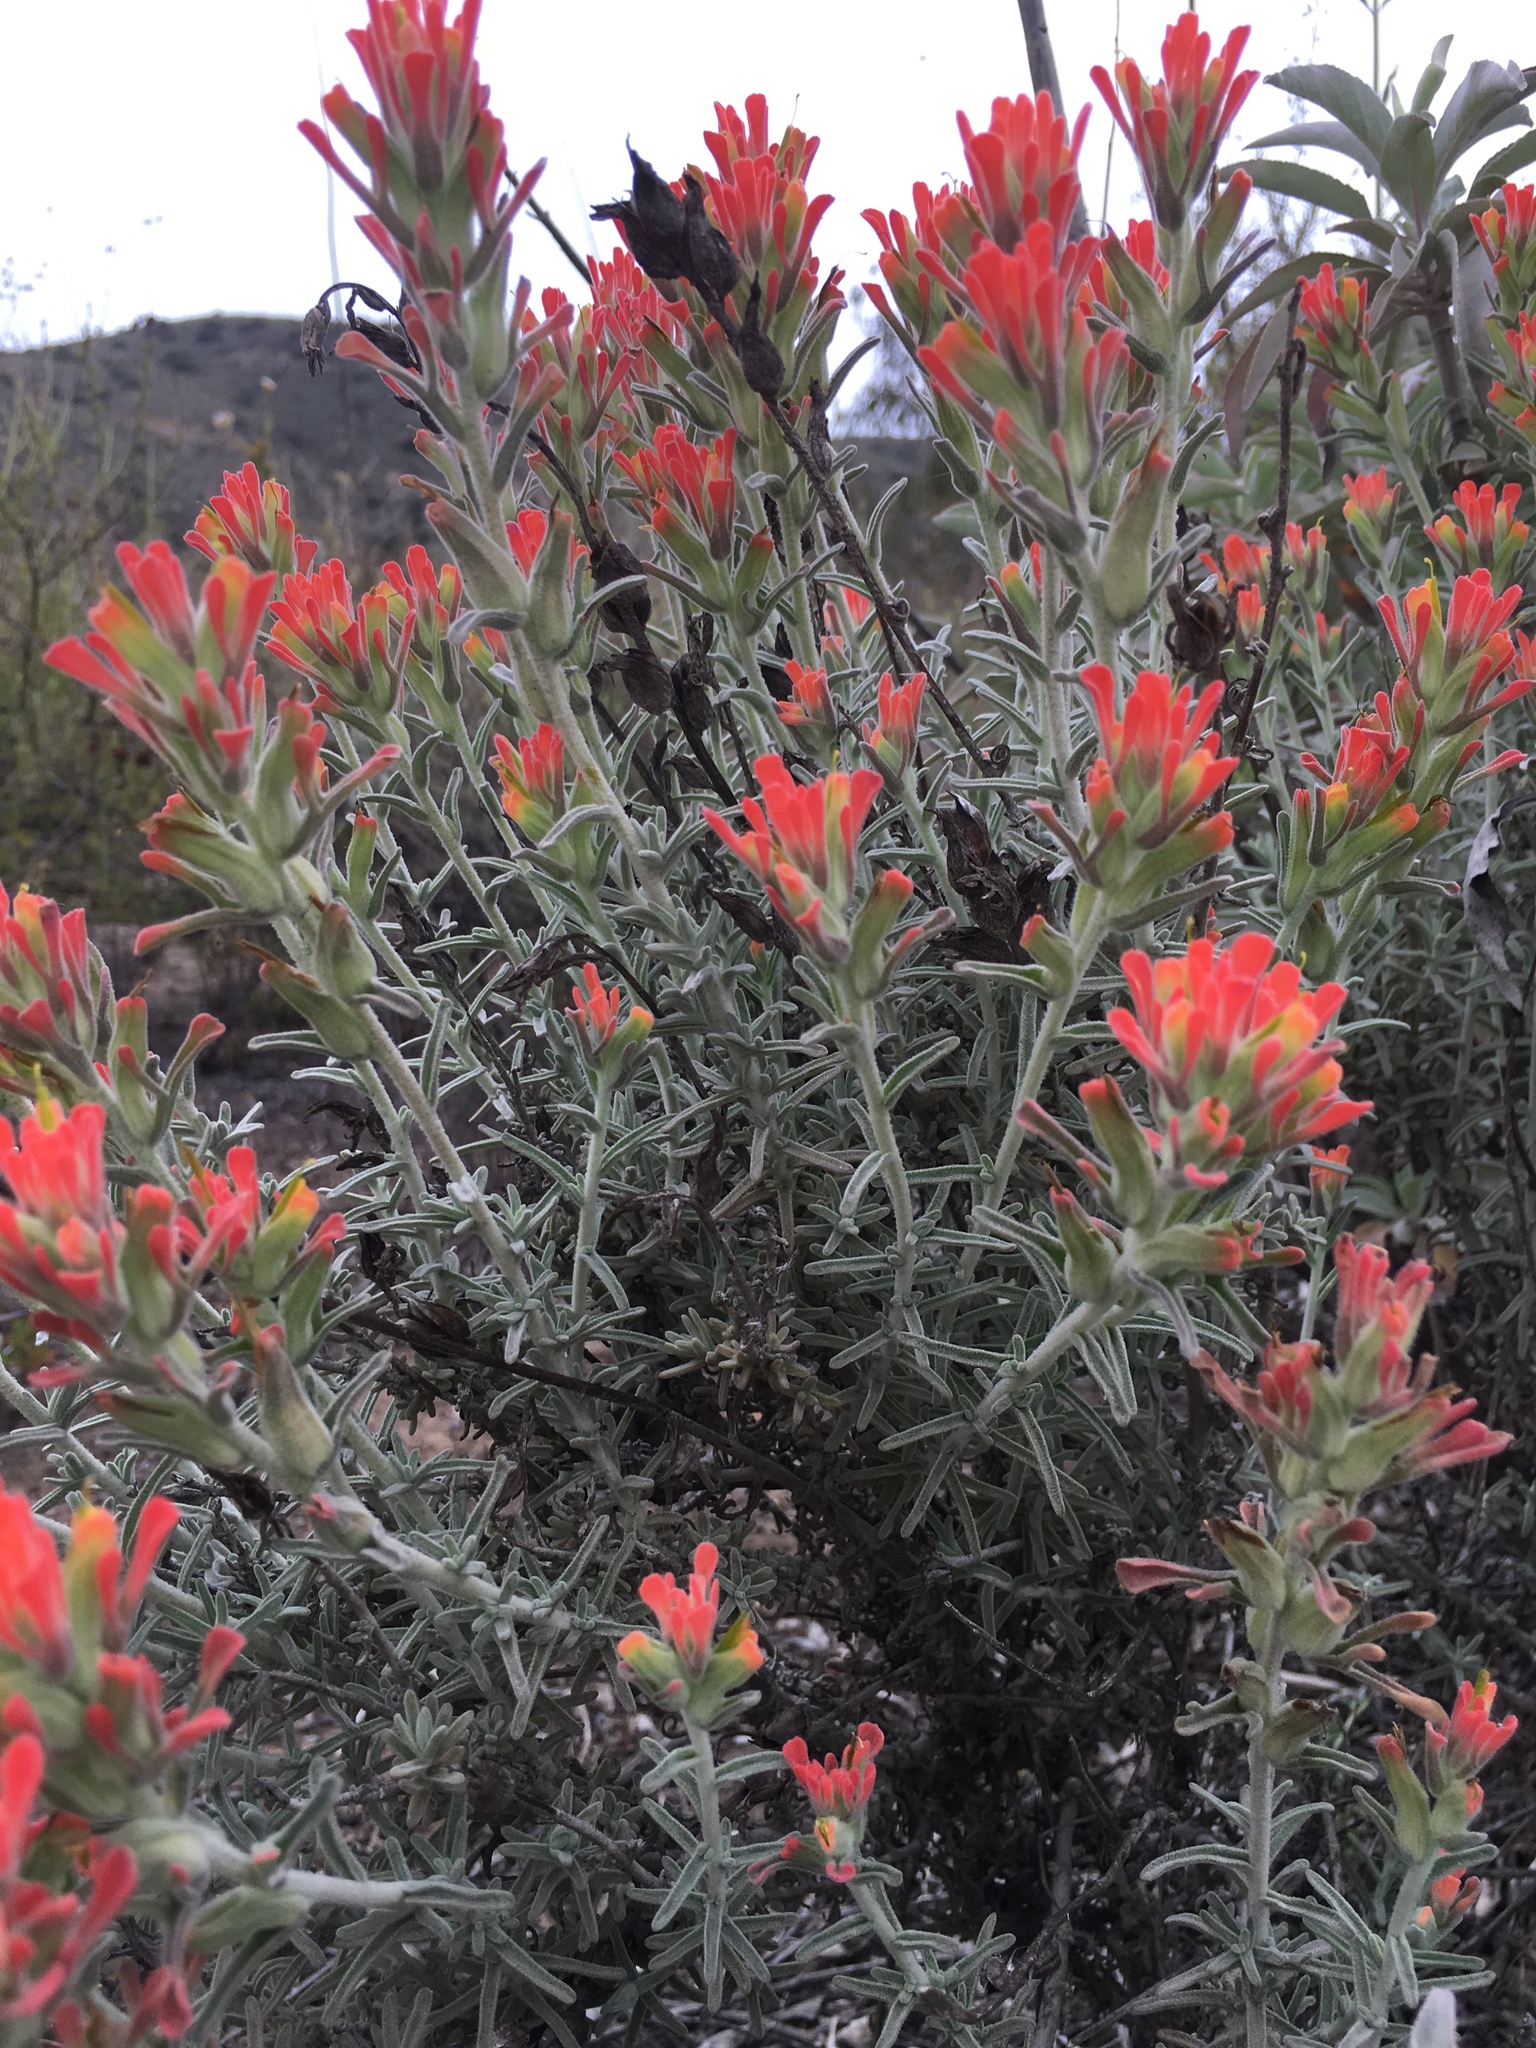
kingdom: Plantae
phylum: Tracheophyta
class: Magnoliopsida
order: Lamiales
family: Orobanchaceae
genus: Castilleja
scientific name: Castilleja foliolosa
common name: Woolly indian paintbrush
